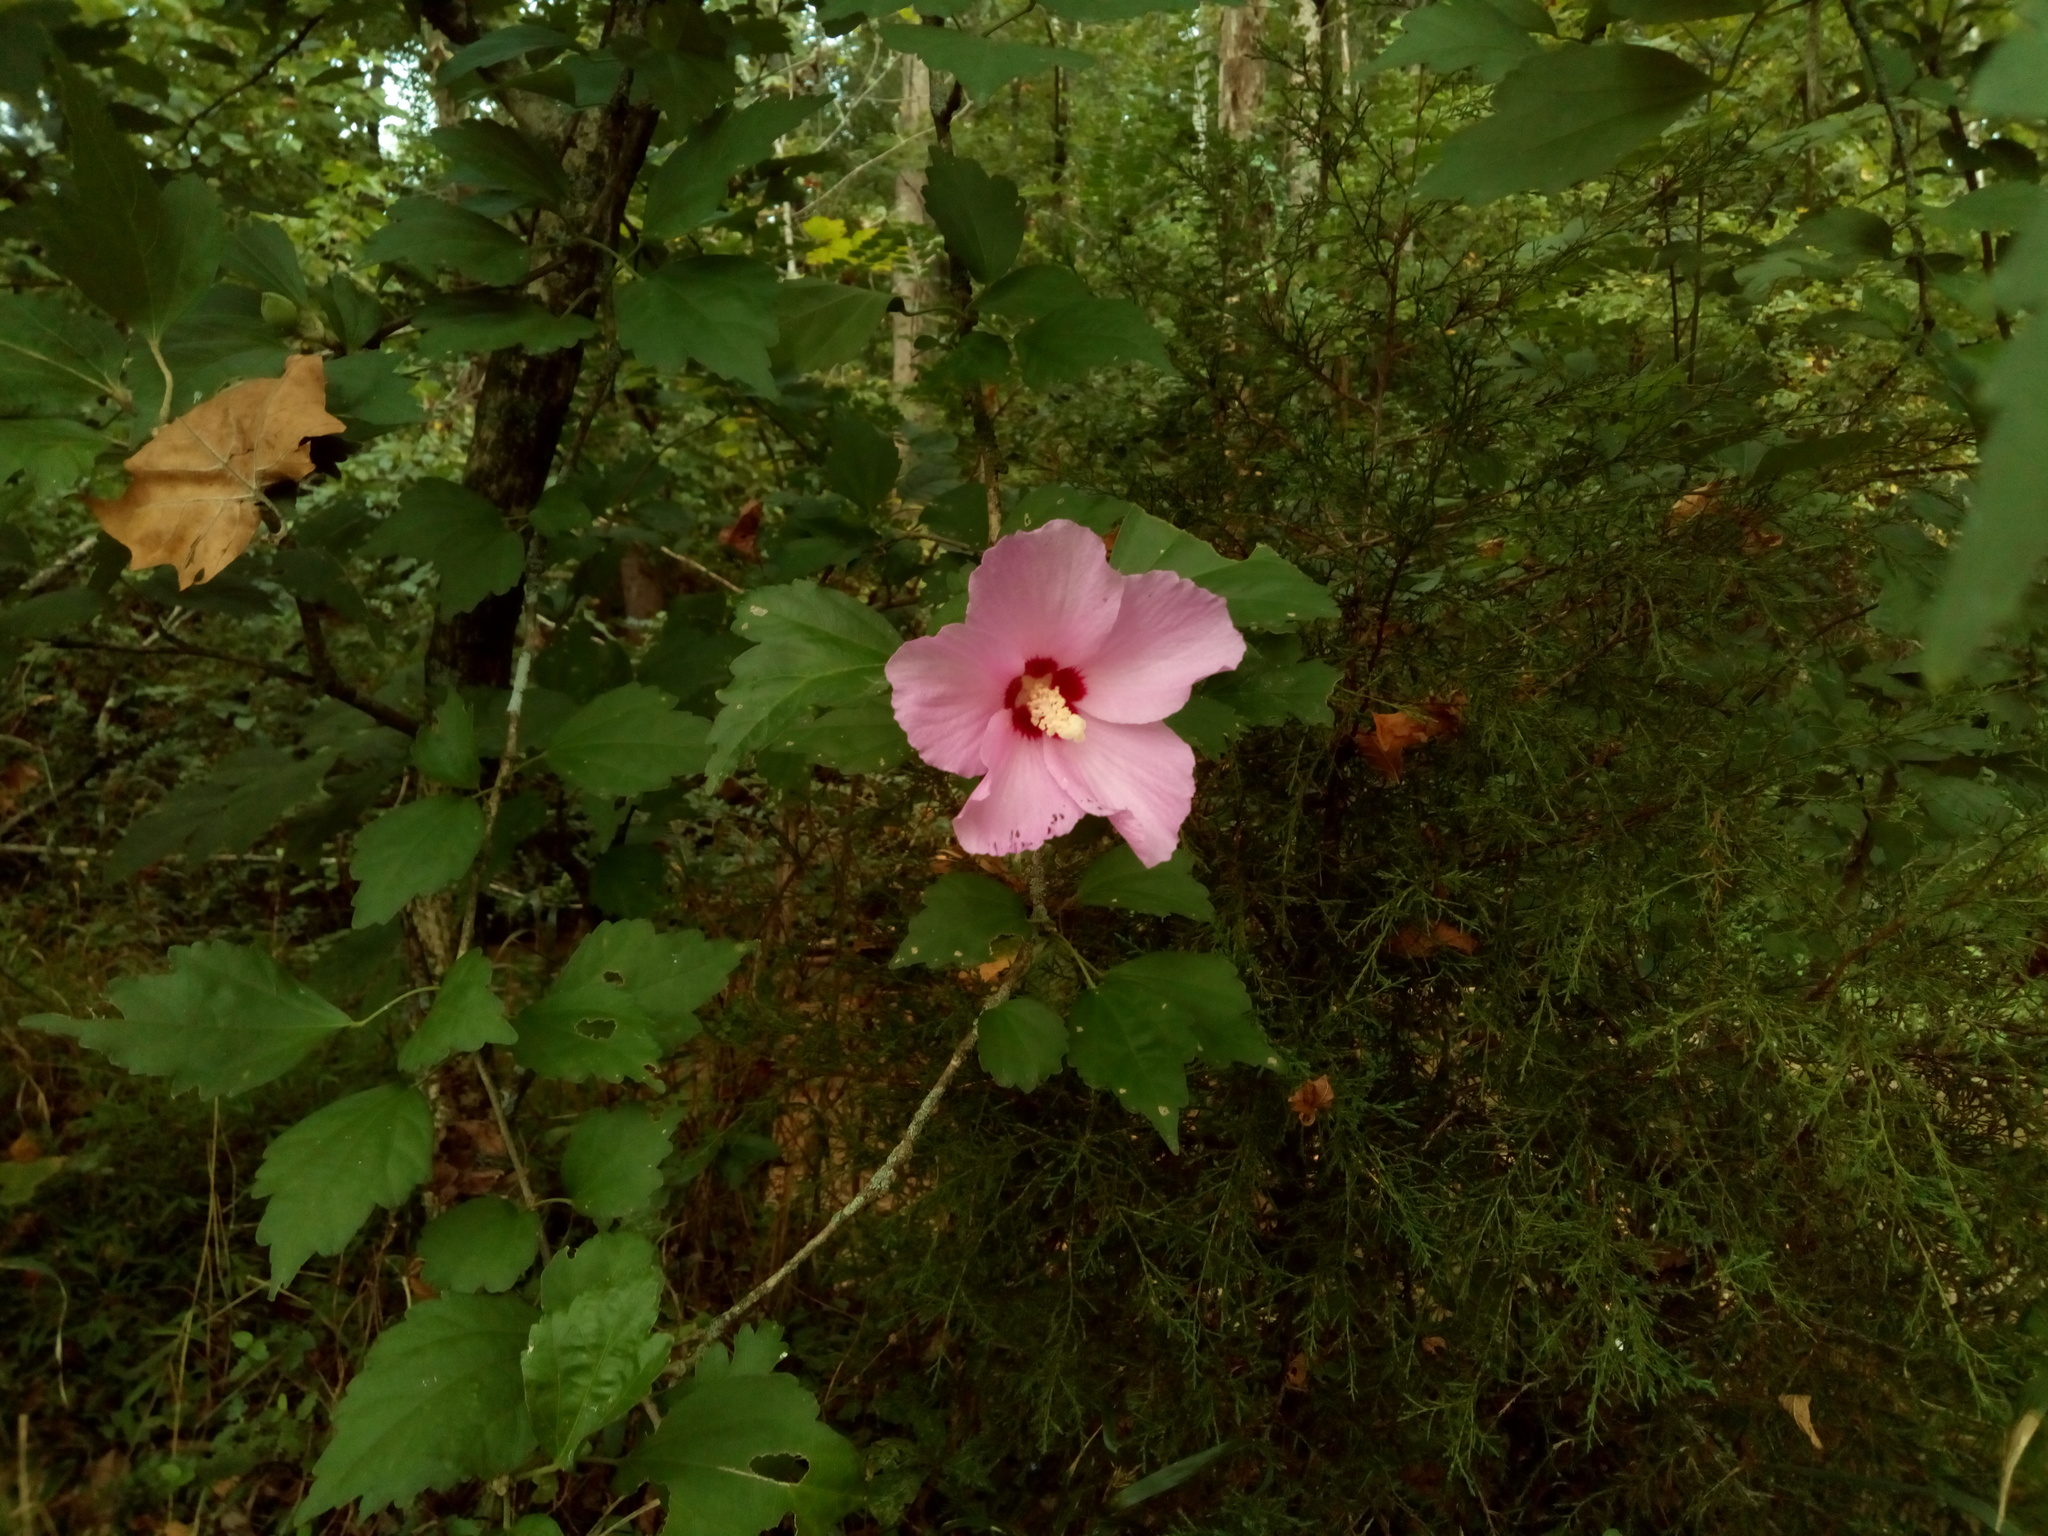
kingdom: Plantae
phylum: Tracheophyta
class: Magnoliopsida
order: Malvales
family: Malvaceae
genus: Hibiscus
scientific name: Hibiscus syriacus
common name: Syrian ketmia
